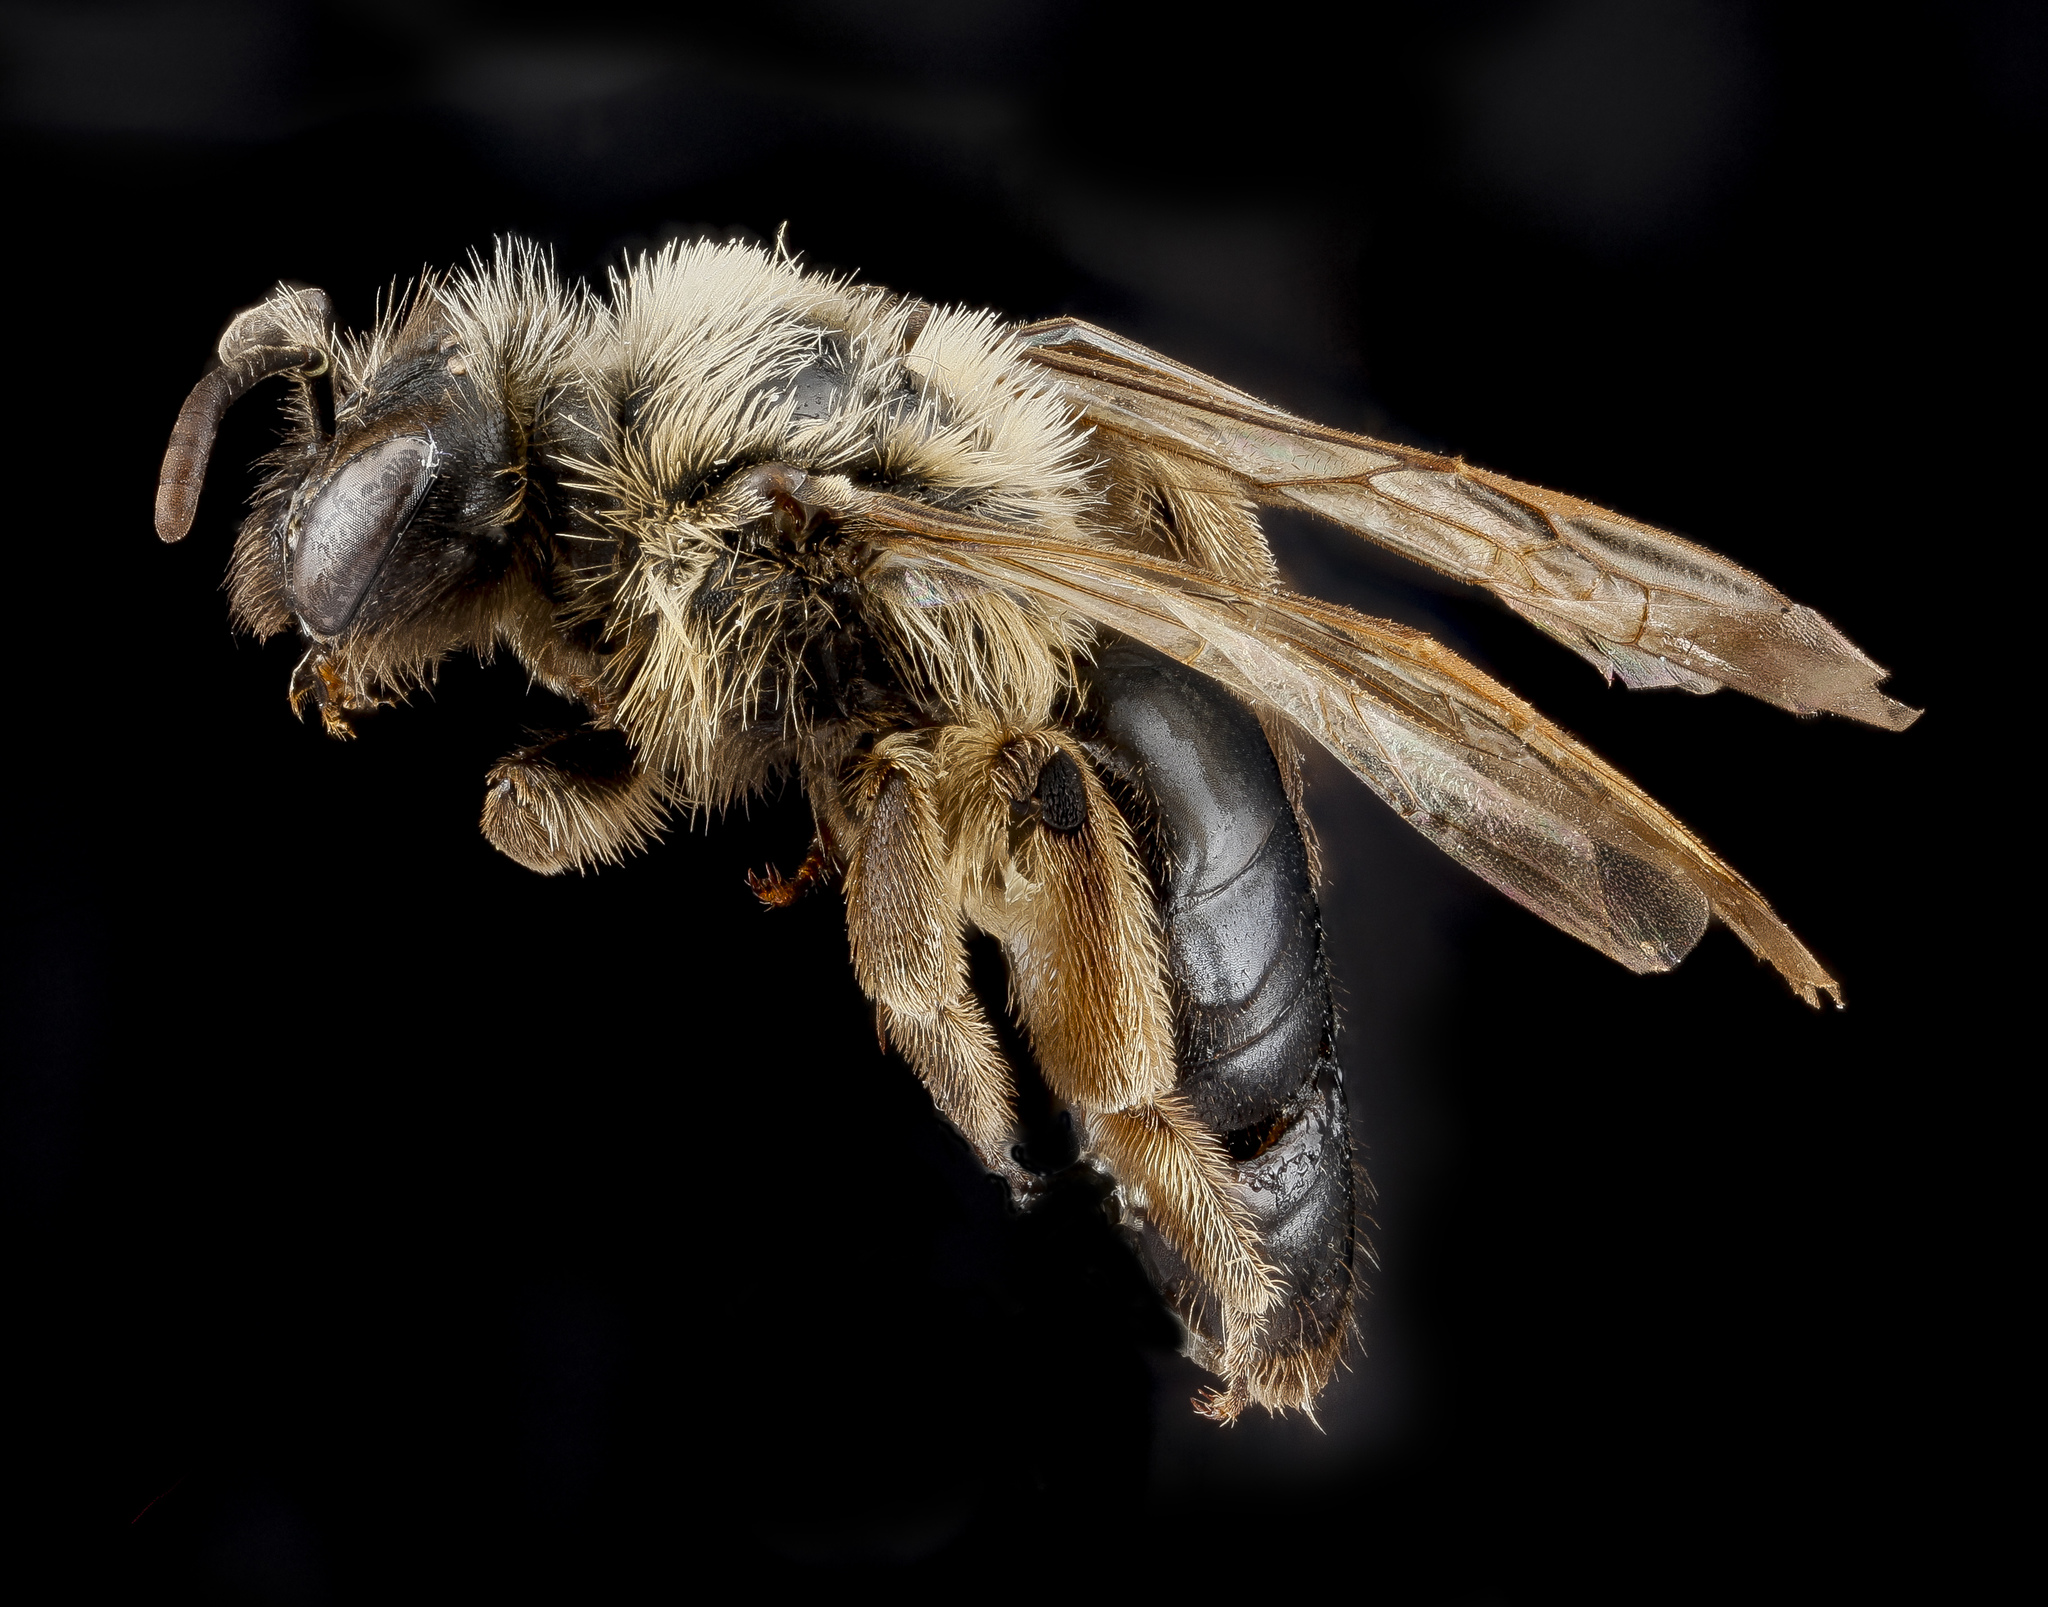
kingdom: Animalia
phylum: Arthropoda
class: Insecta
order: Hymenoptera
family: Andrenidae
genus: Andrena
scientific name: Andrena merriami
